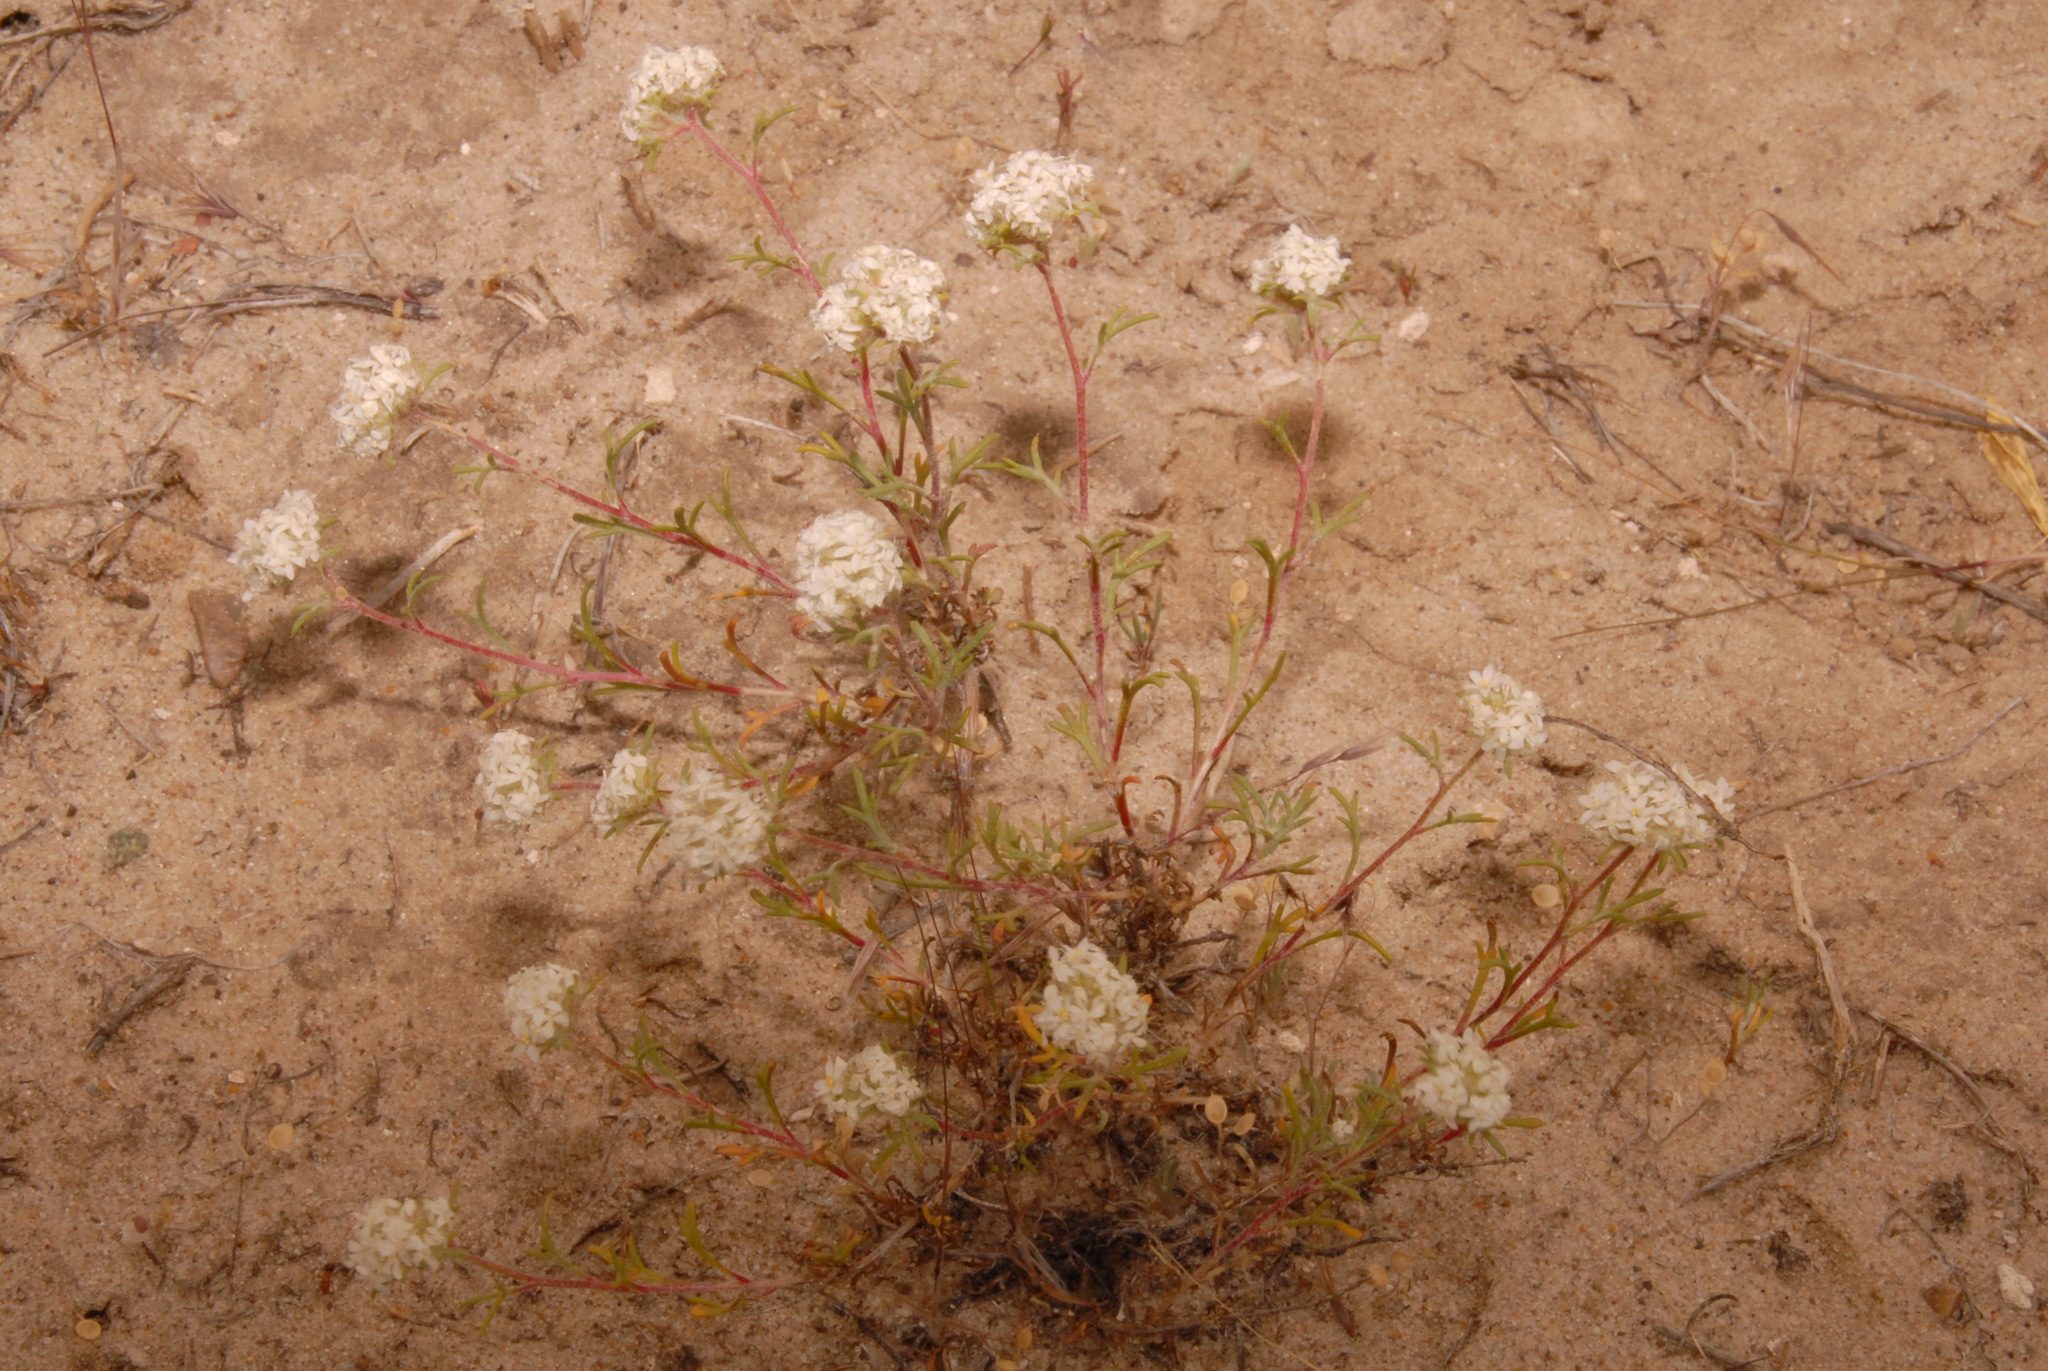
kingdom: Plantae
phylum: Tracheophyta
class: Magnoliopsida
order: Ericales
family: Polemoniaceae
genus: Ipomopsis
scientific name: Ipomopsis congesta
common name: Ball-head gilia
